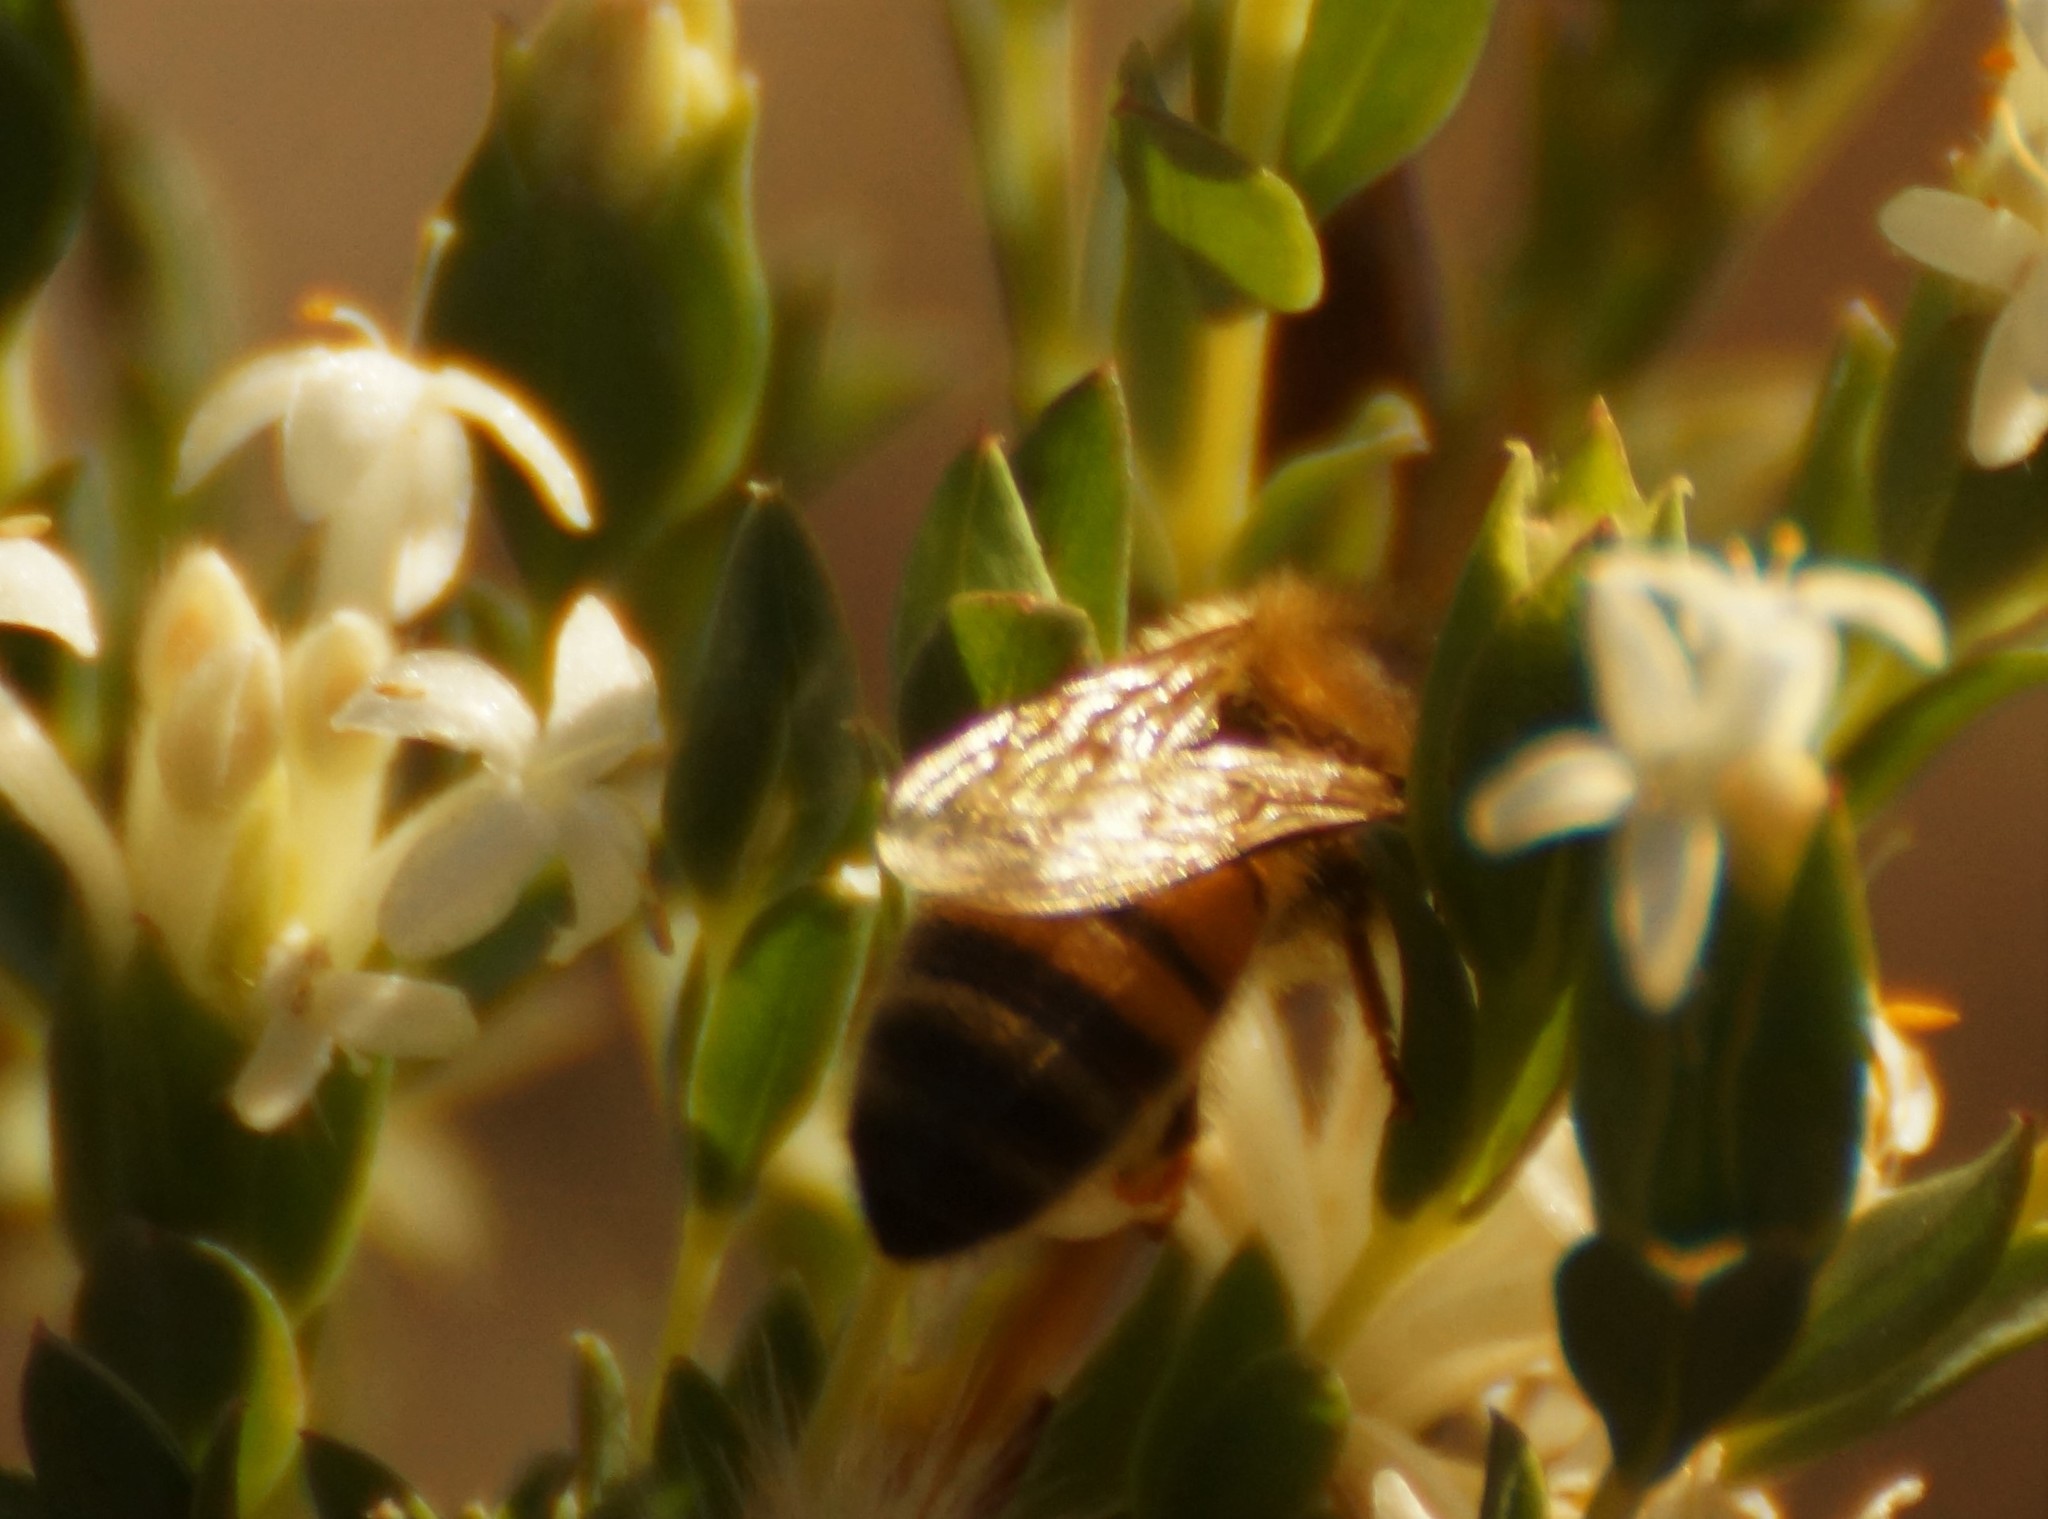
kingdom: Animalia
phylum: Arthropoda
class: Insecta
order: Hymenoptera
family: Apidae
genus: Apis
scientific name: Apis mellifera
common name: Honey bee
